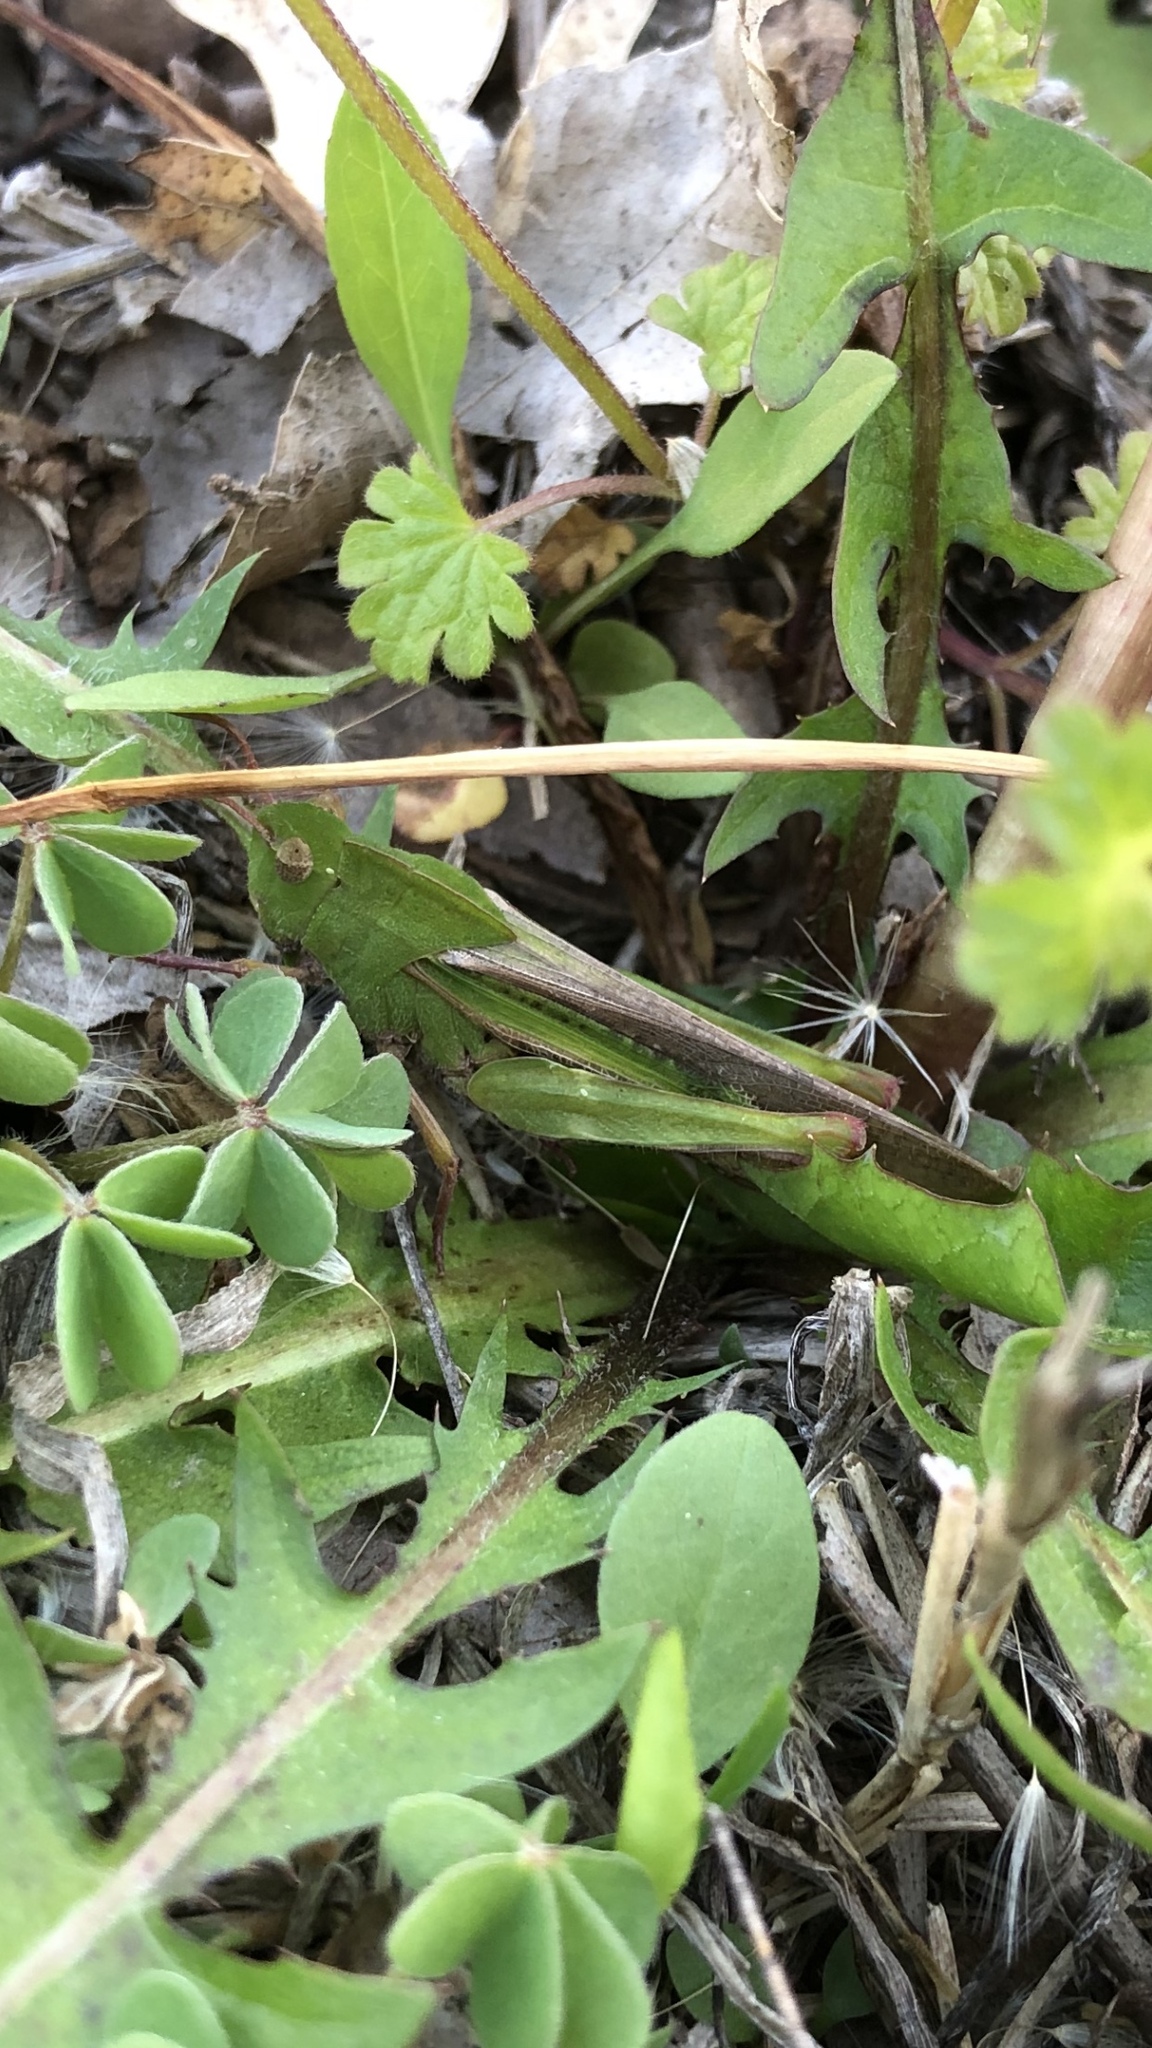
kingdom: Animalia
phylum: Arthropoda
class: Insecta
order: Orthoptera
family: Acrididae
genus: Chortophaga
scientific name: Chortophaga viridifasciata
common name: Green-striped grasshopper
